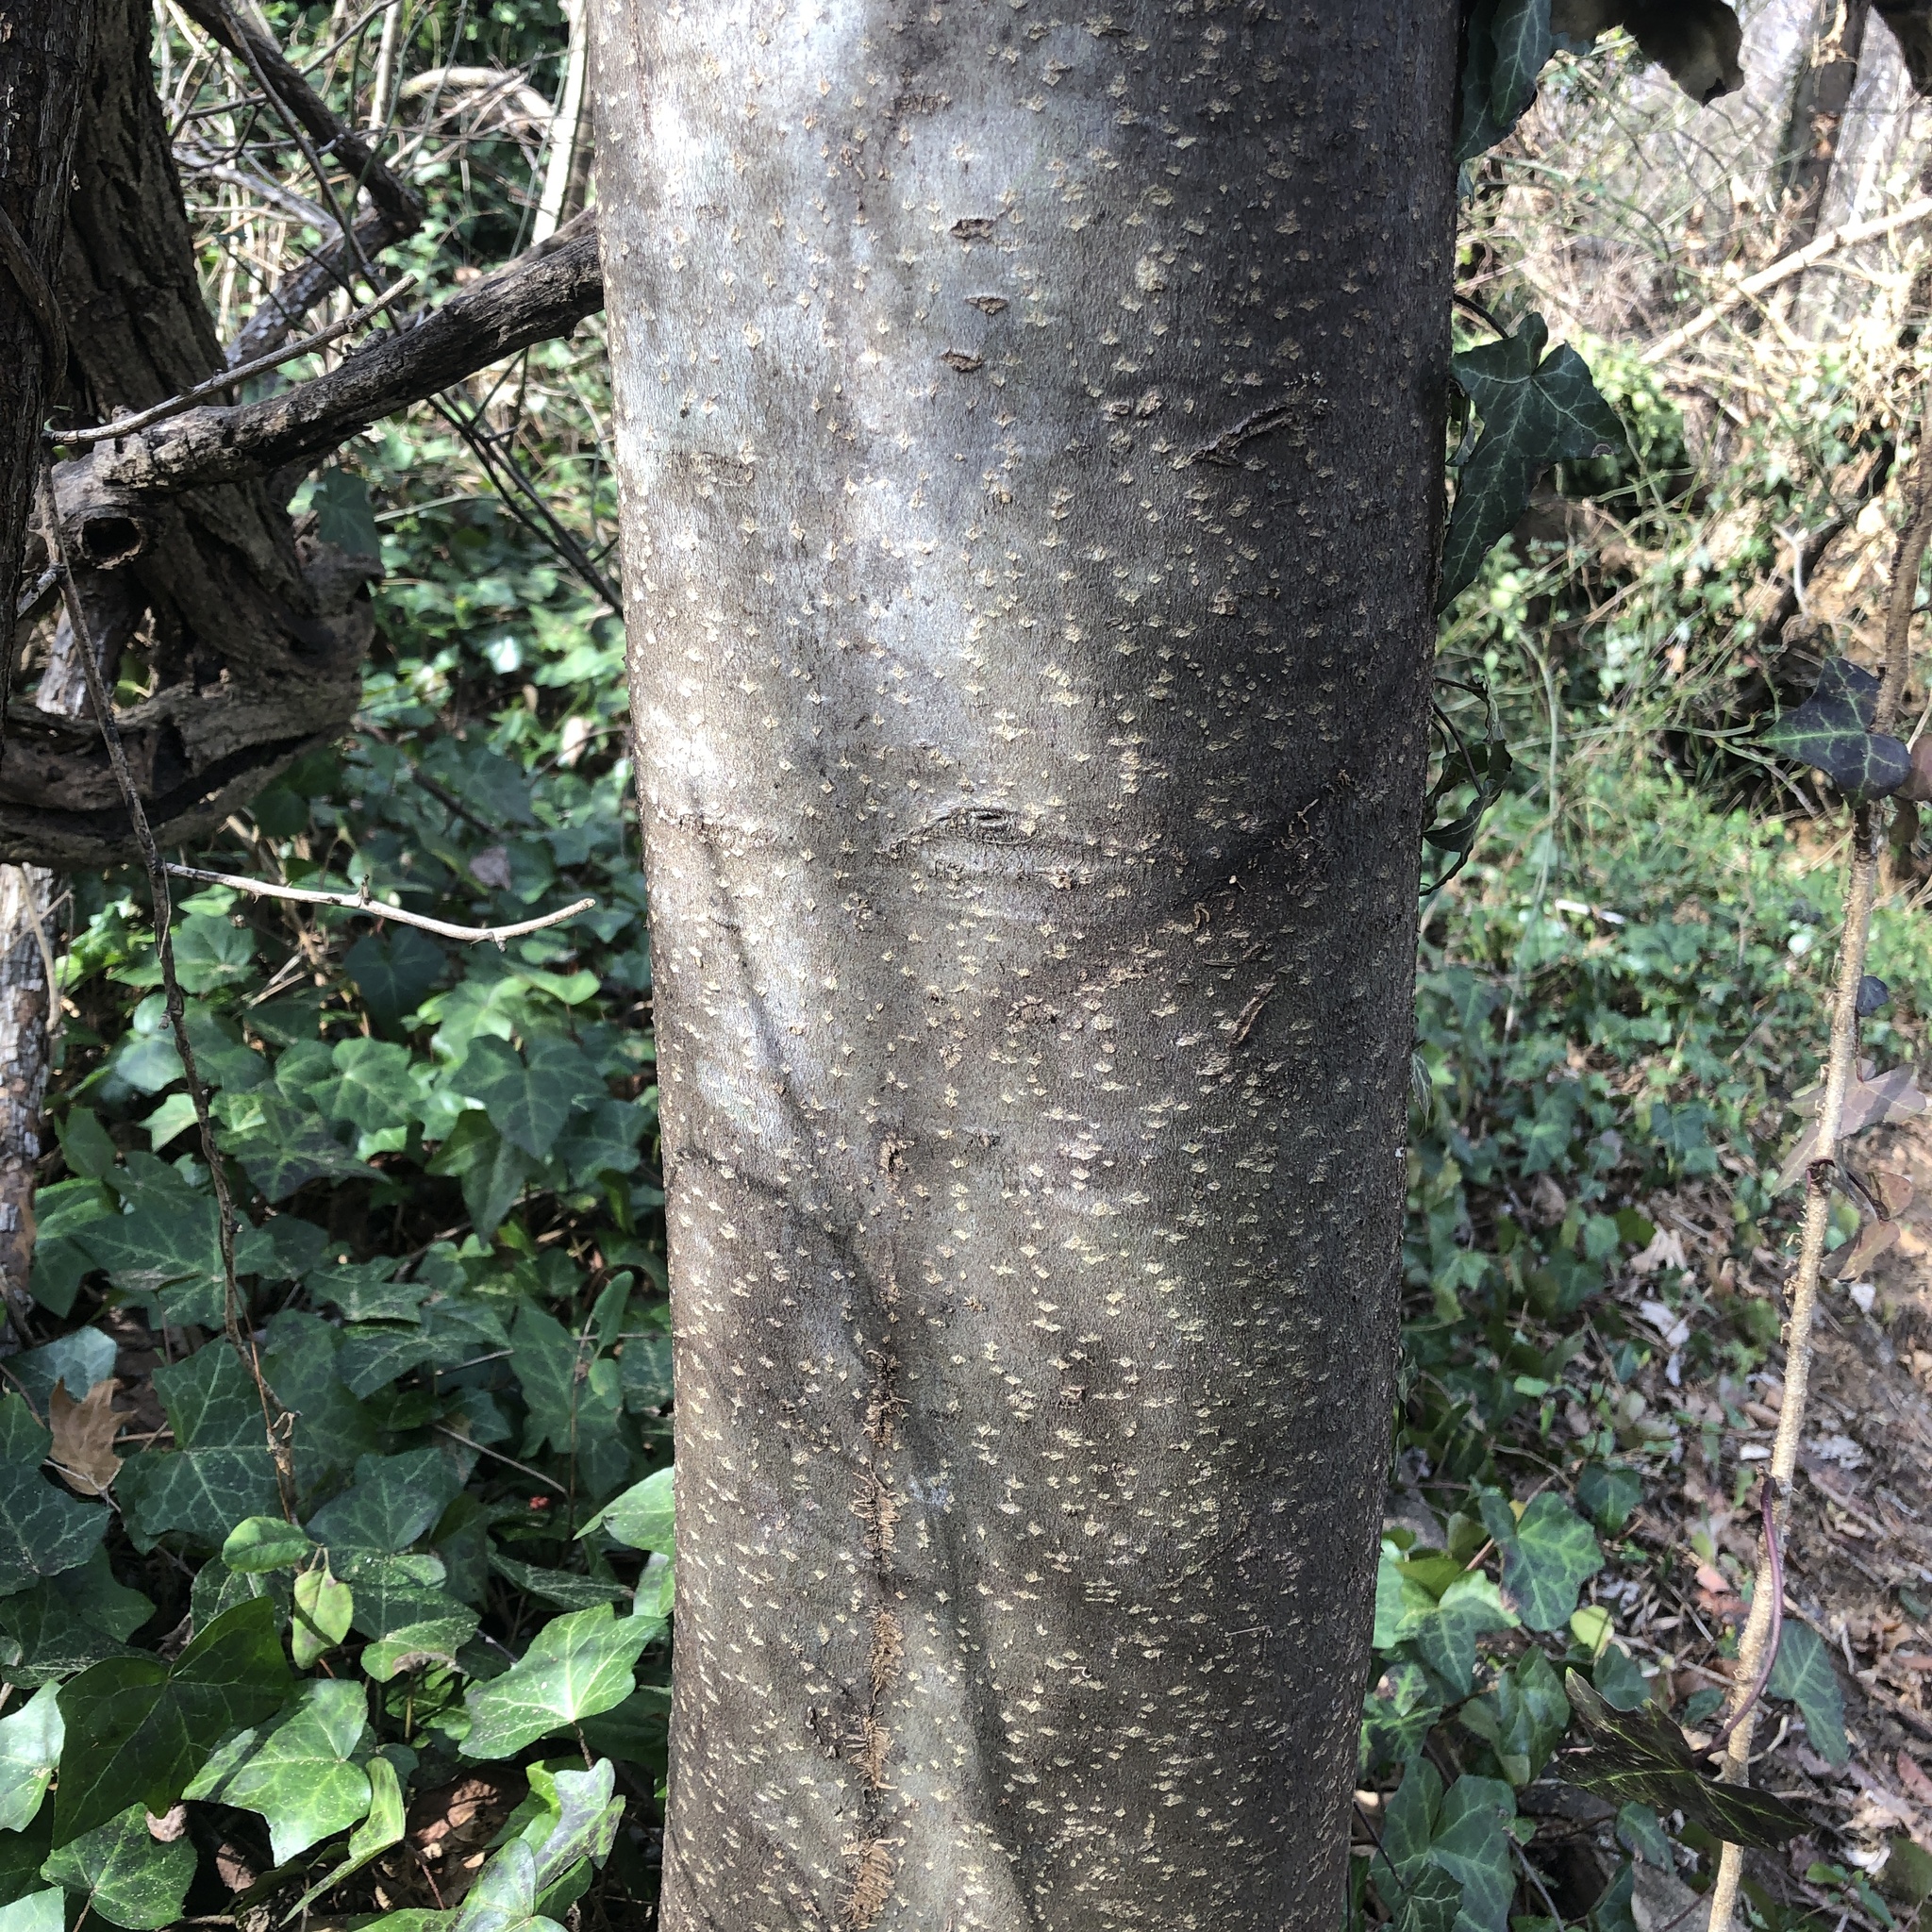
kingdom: Plantae
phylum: Tracheophyta
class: Magnoliopsida
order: Sapindales
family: Rutaceae
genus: Tetradium
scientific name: Tetradium daniellii
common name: Bee-bee tree
